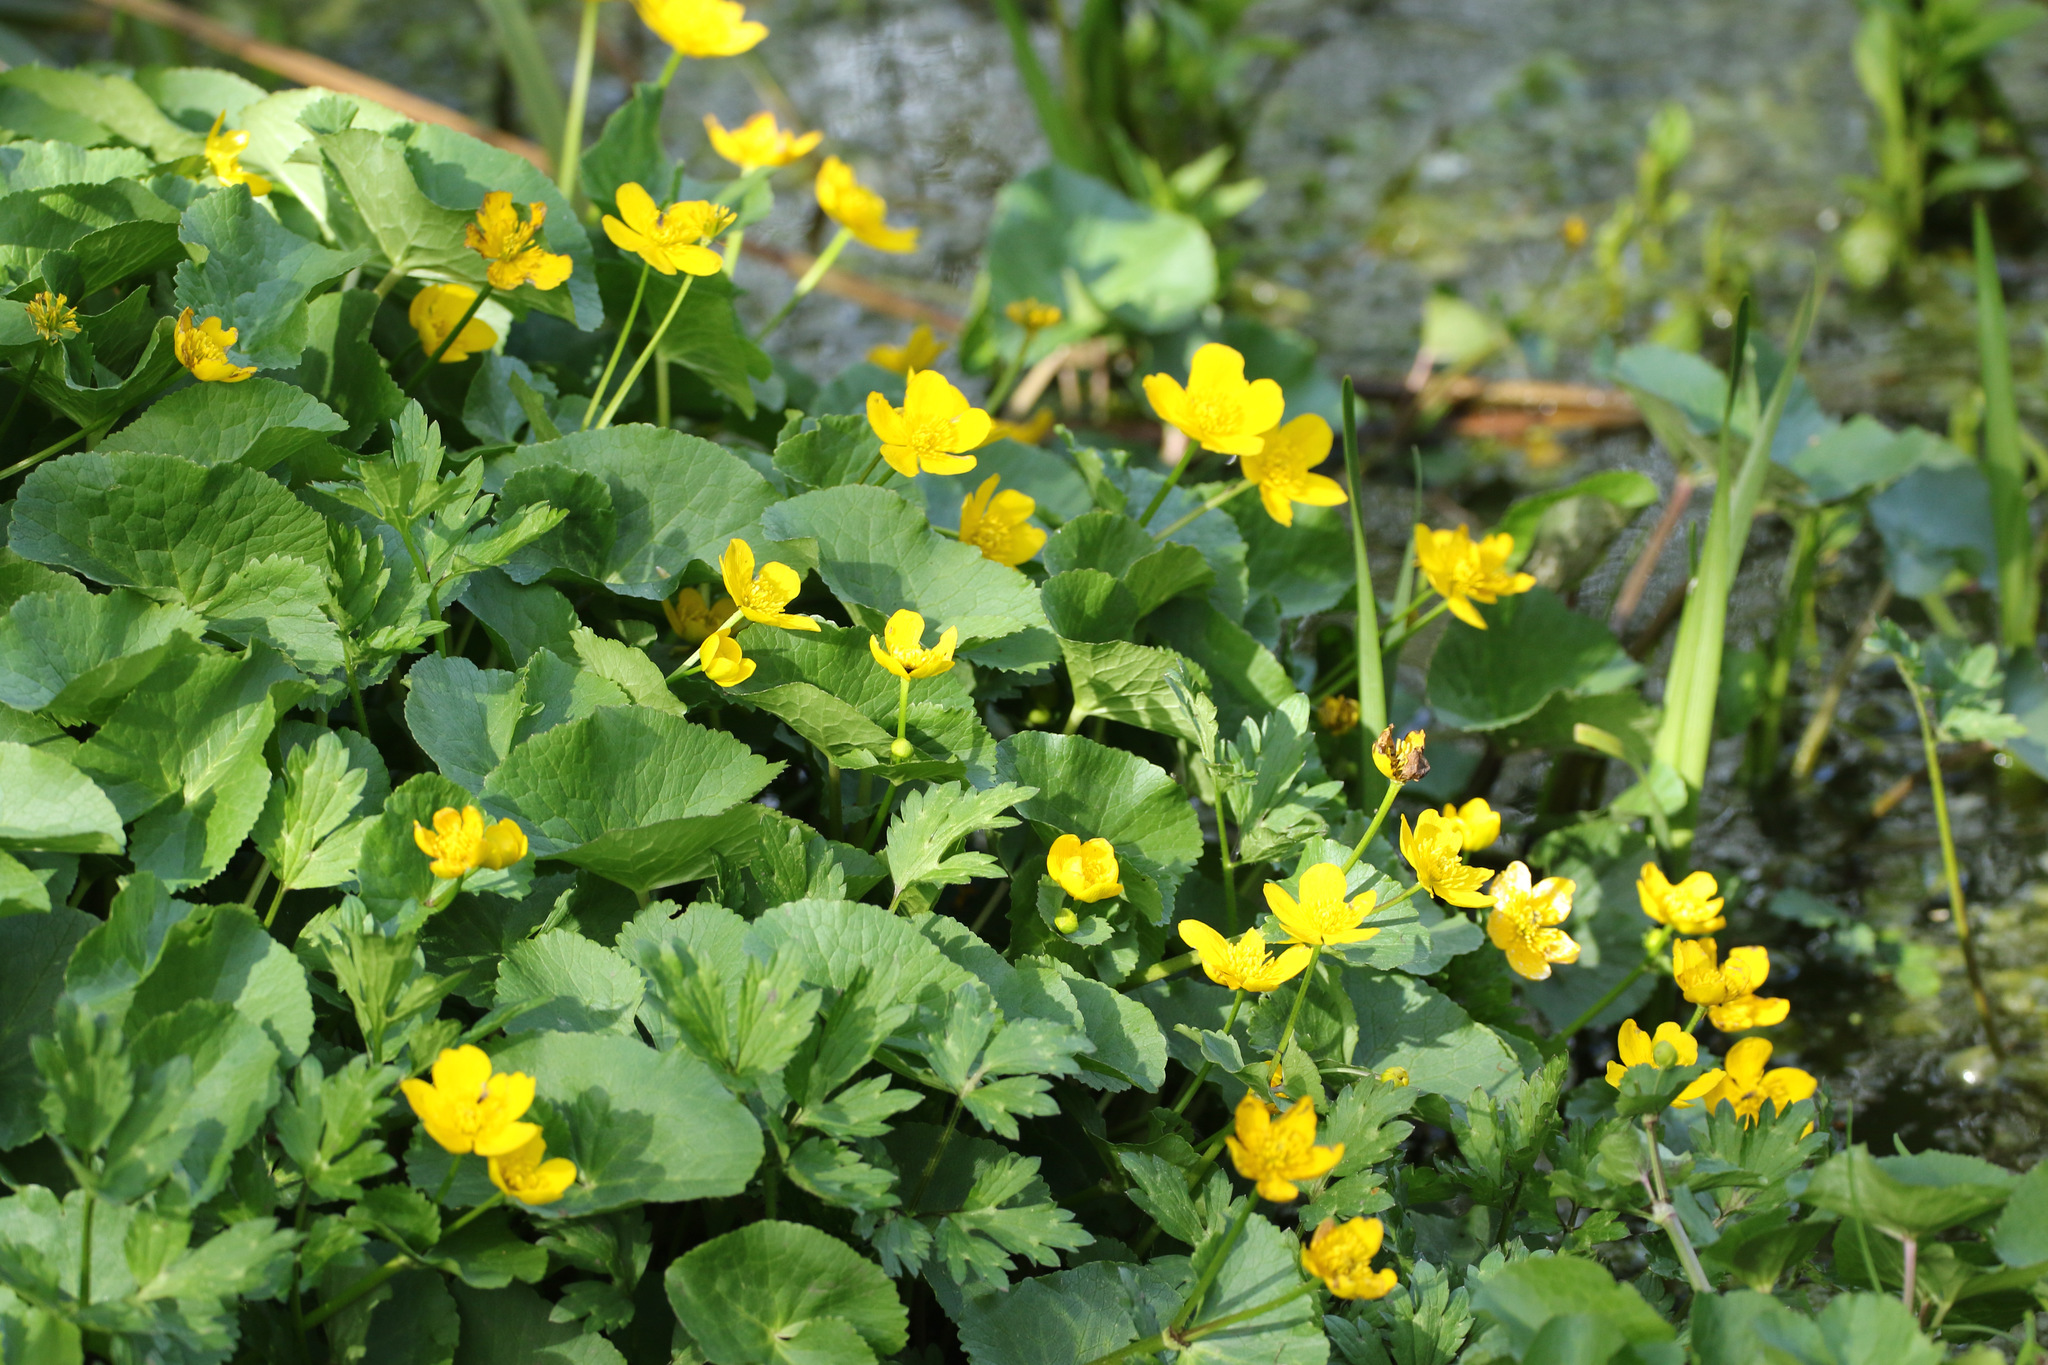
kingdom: Plantae
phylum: Tracheophyta
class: Magnoliopsida
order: Ranunculales
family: Ranunculaceae
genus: Caltha
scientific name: Caltha palustris
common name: Marsh marigold
